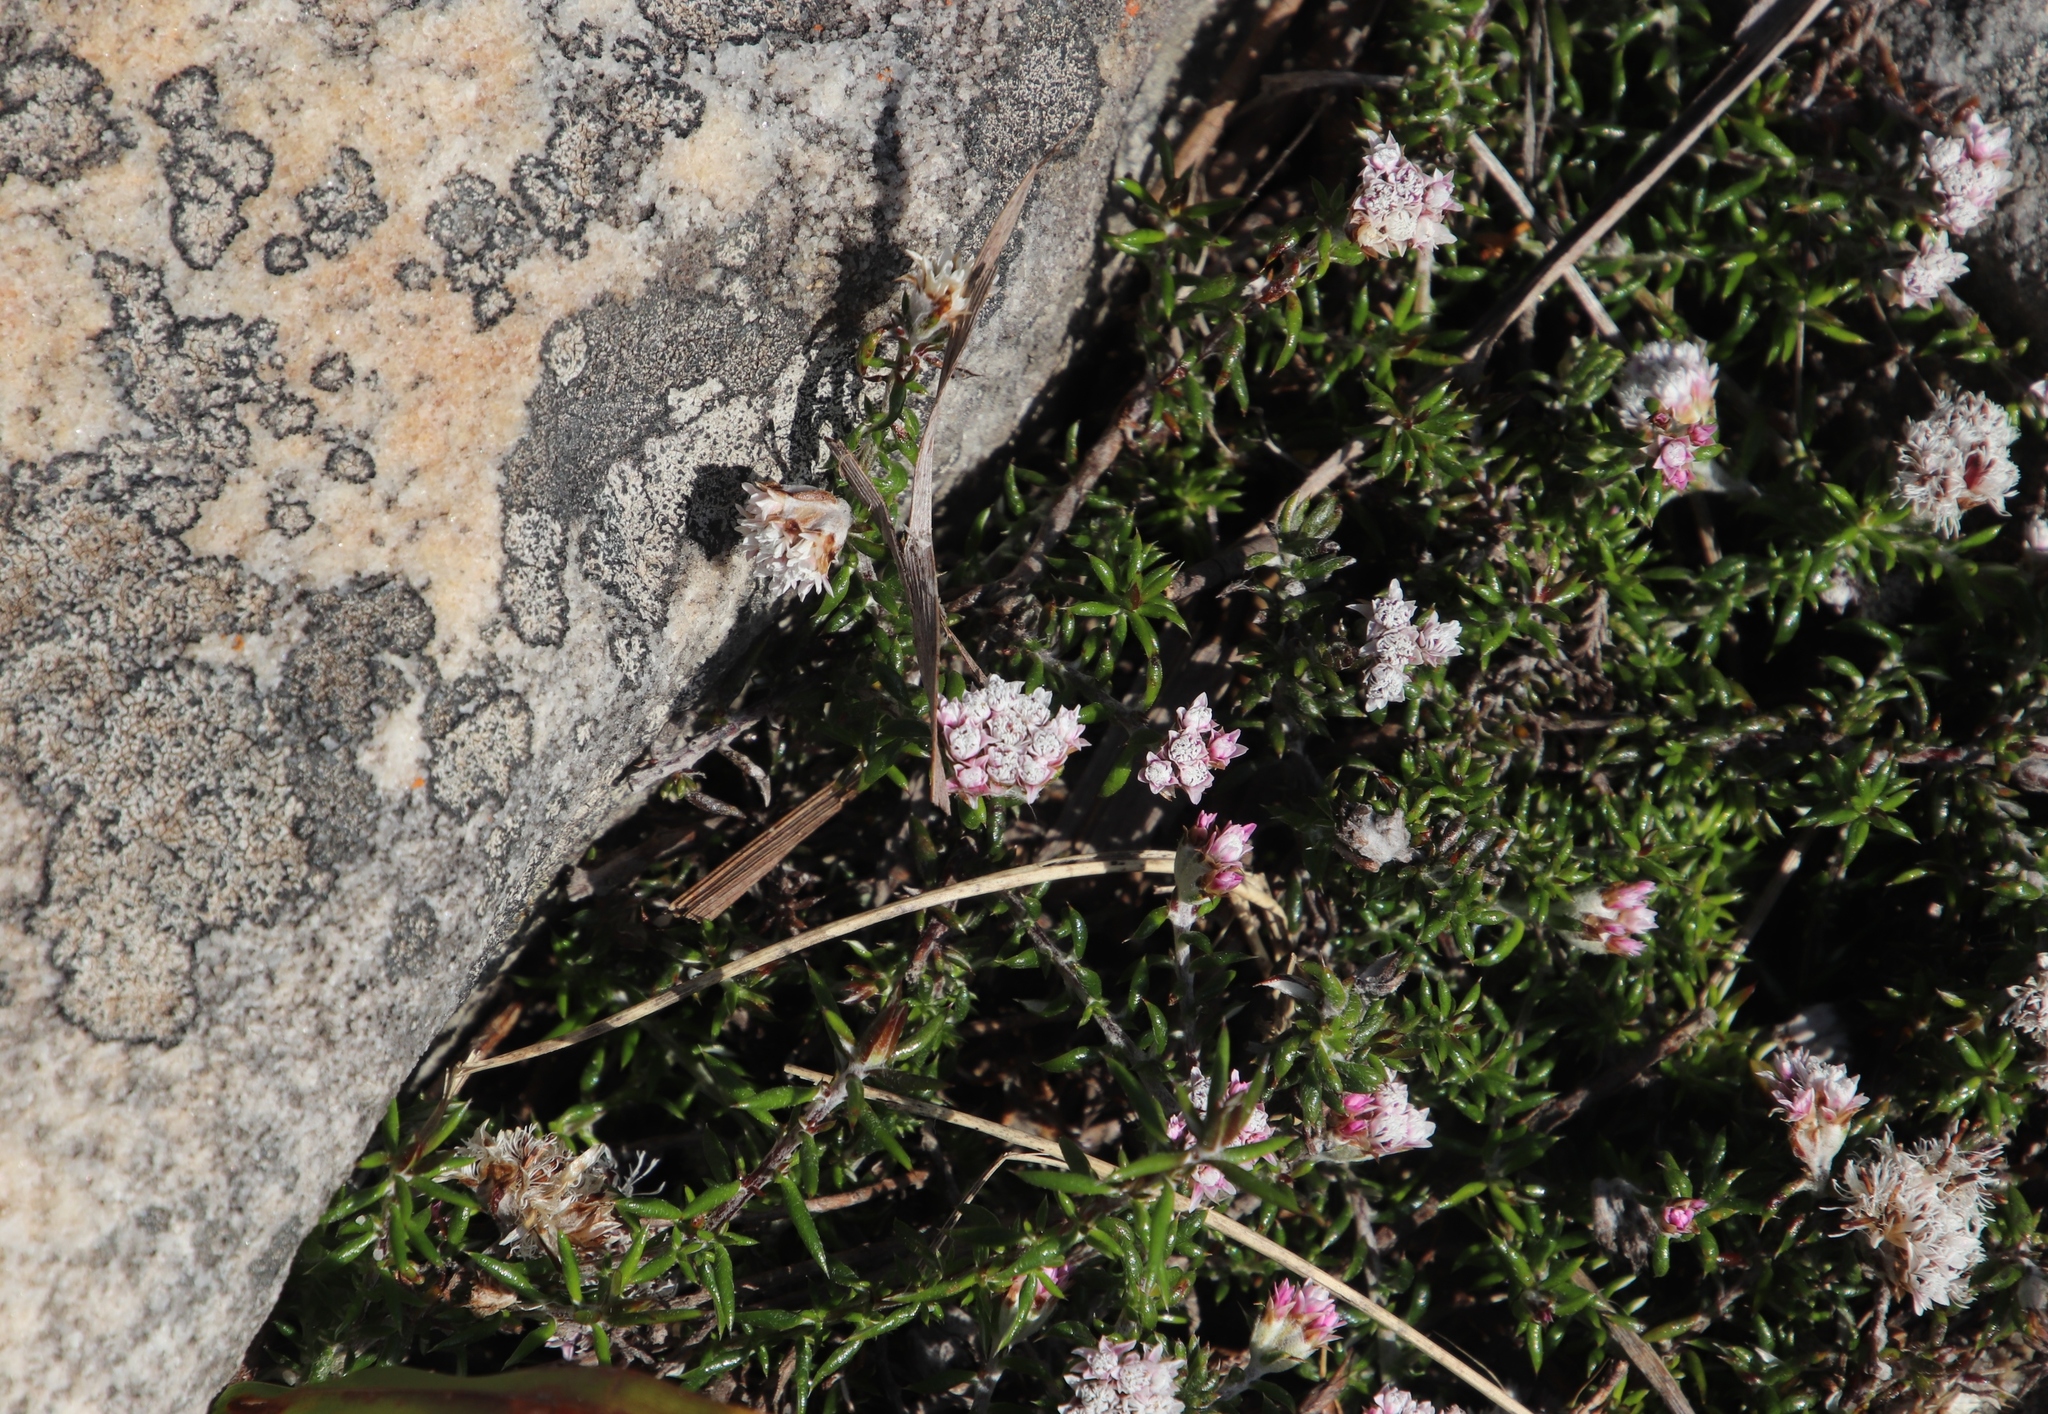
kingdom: Plantae
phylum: Tracheophyta
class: Magnoliopsida
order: Asterales
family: Asteraceae
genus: Metalasia
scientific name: Metalasia divergens
